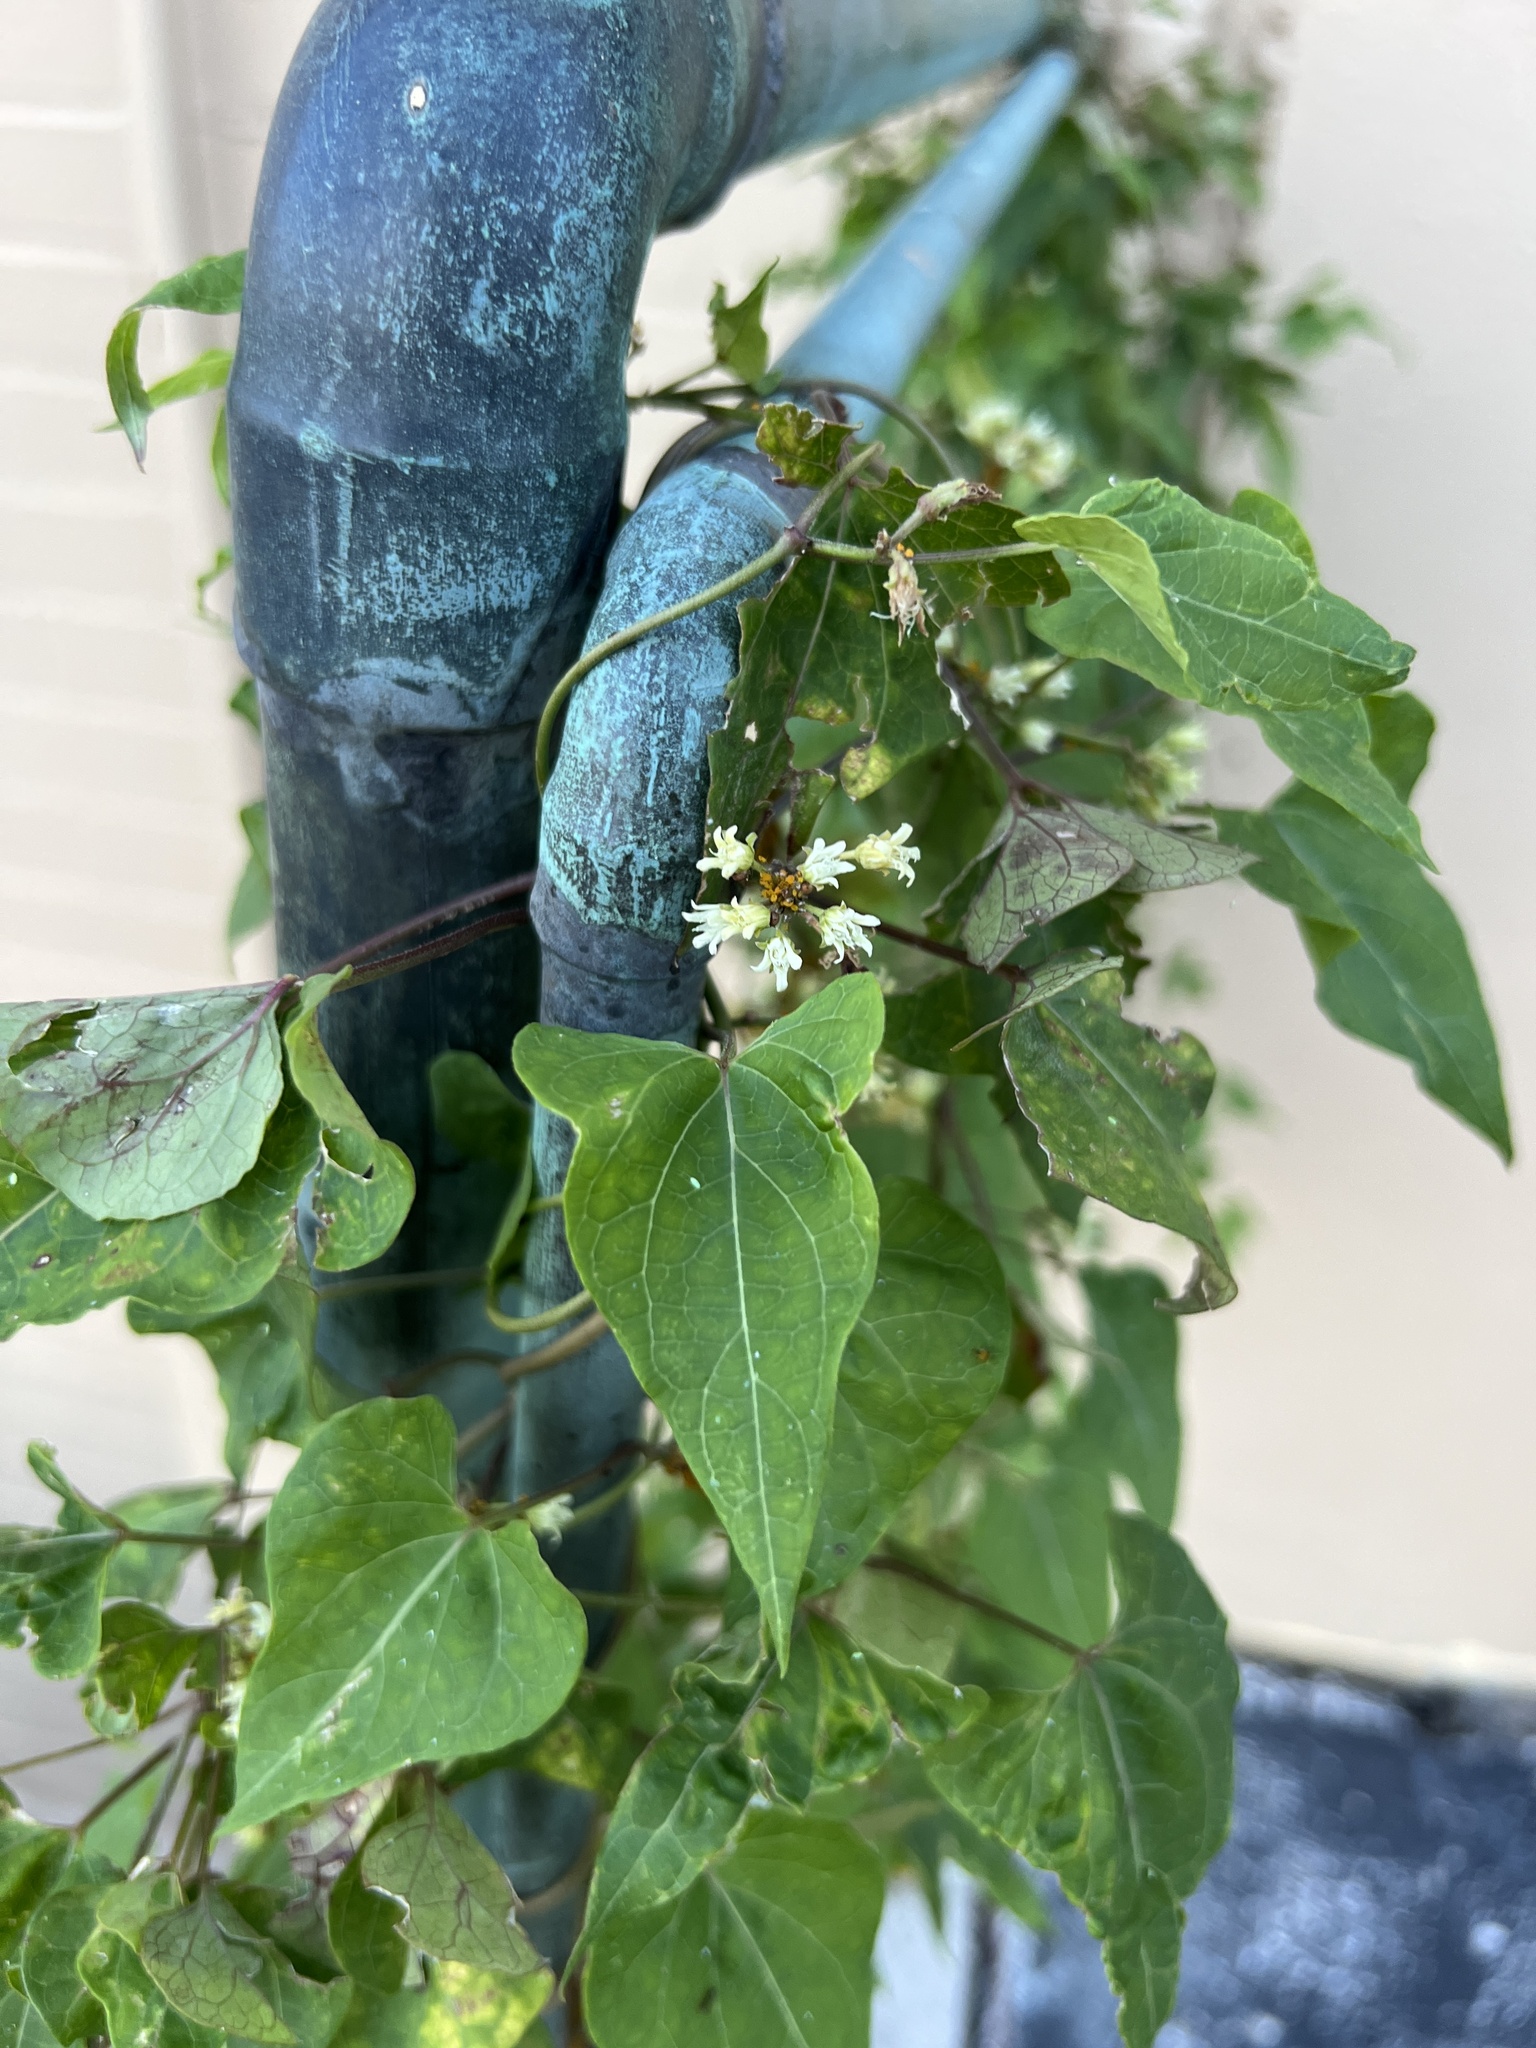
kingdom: Plantae
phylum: Tracheophyta
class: Magnoliopsida
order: Gentianales
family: Apocynaceae
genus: Cynanchum
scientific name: Cynanchum laeve
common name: Sandvine
